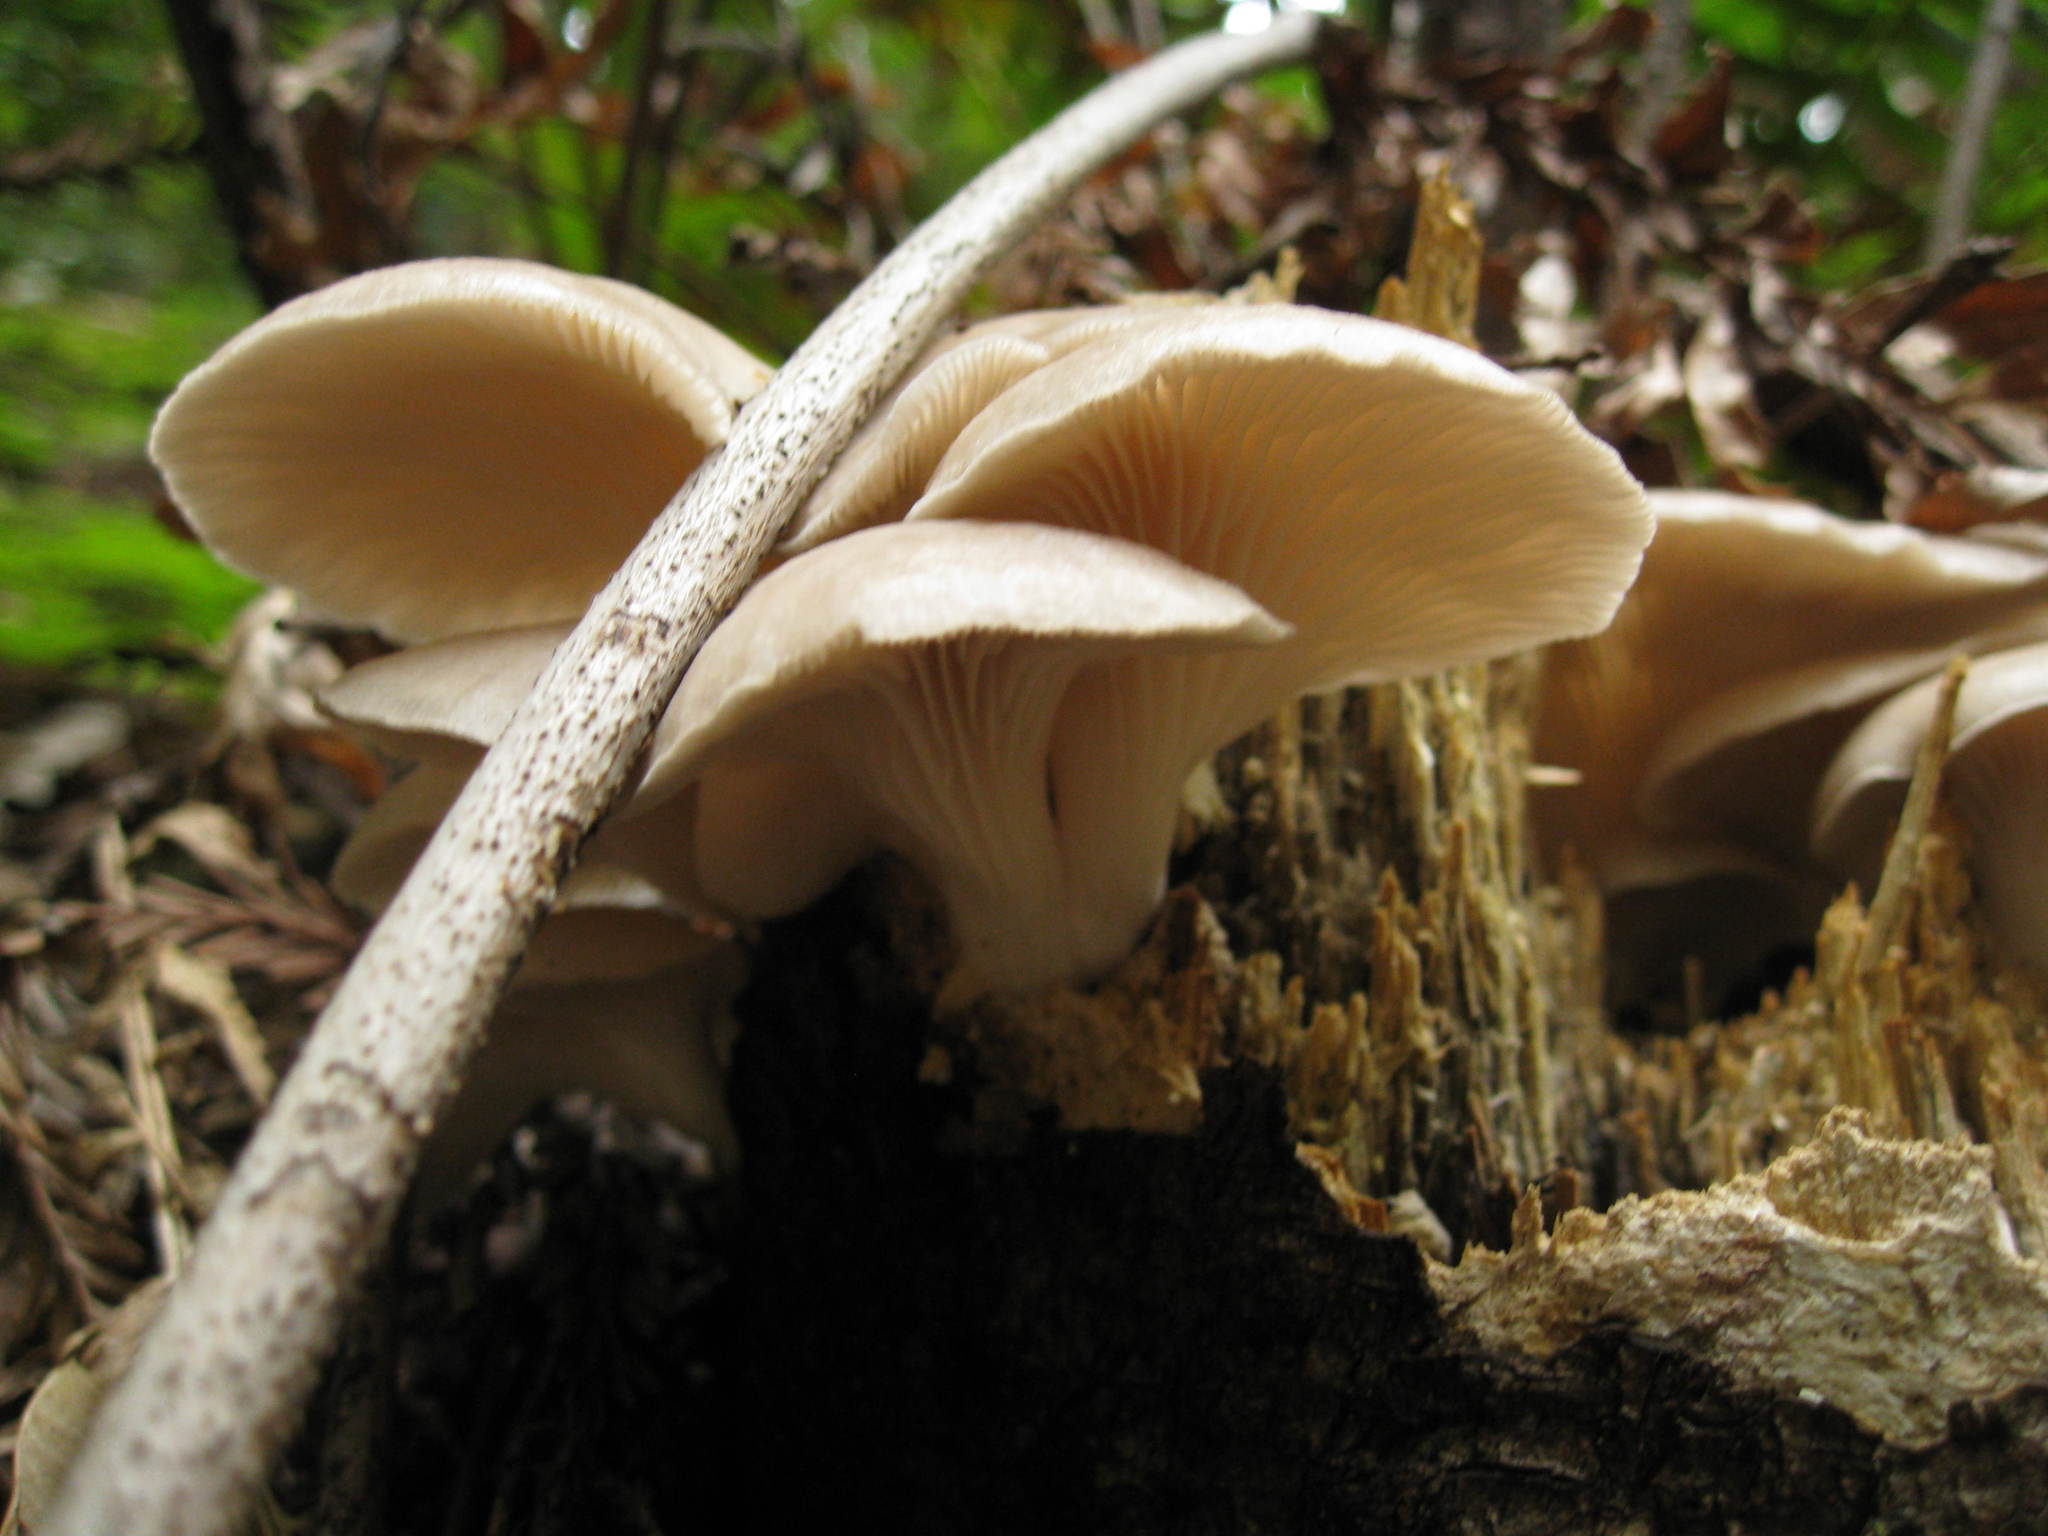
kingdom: Fungi
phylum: Basidiomycota
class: Agaricomycetes
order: Agaricales
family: Pleurotaceae
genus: Pleurotus
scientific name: Pleurotus pulmonarius
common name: Pale oyster
